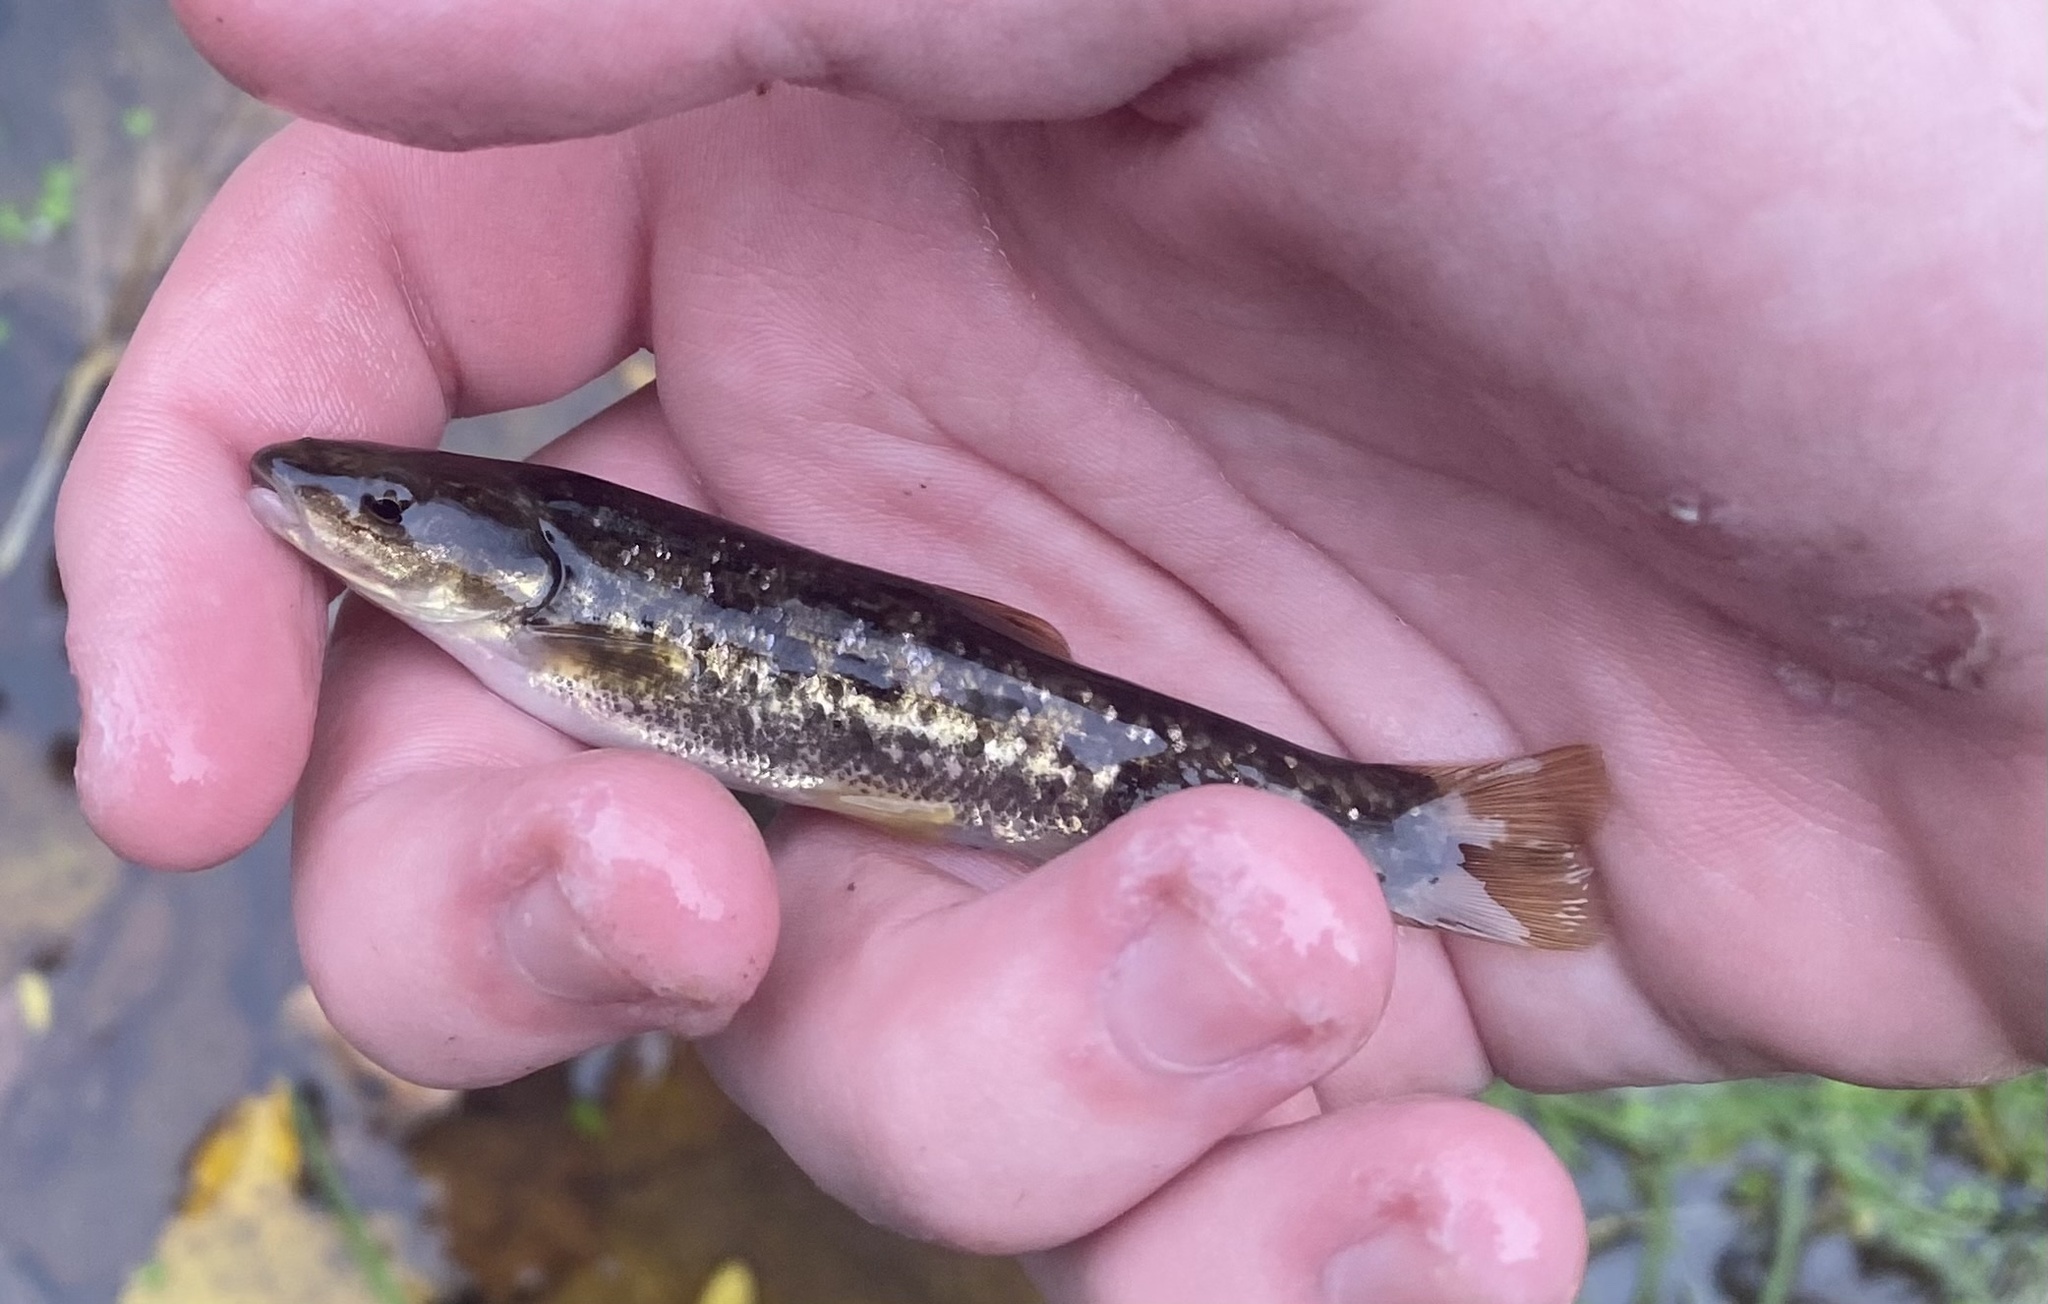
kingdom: Animalia
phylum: Chordata
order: Cypriniformes
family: Cyprinidae
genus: Rhinichthys
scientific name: Rhinichthys obtusus
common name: Western blacknose dace
